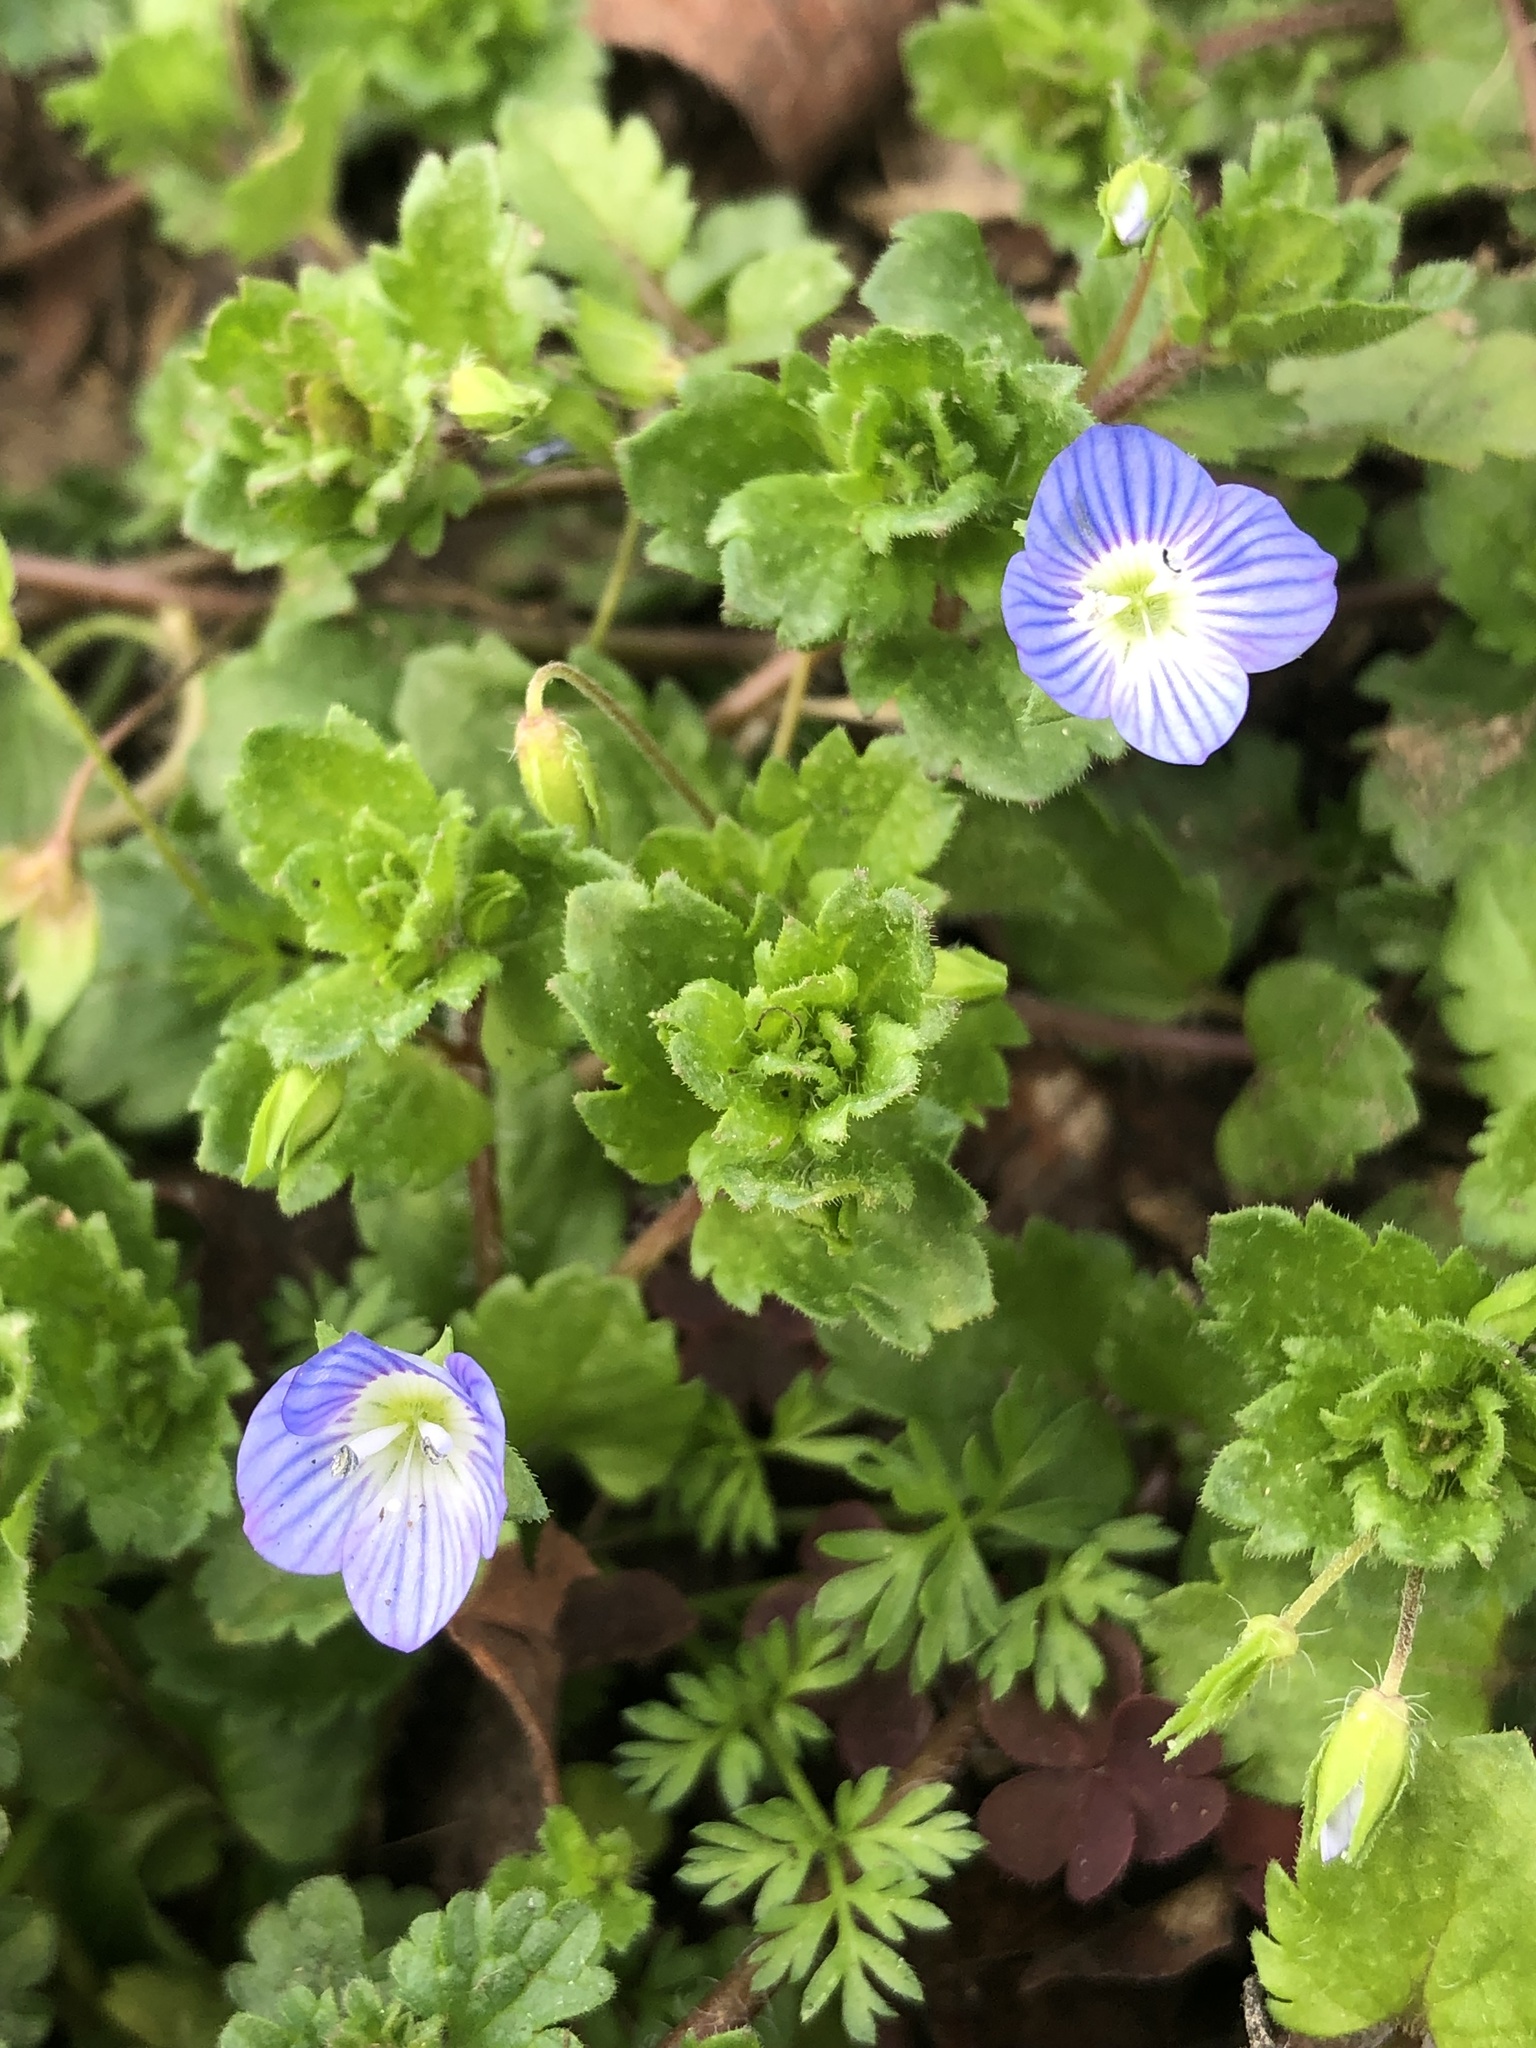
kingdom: Plantae
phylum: Tracheophyta
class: Magnoliopsida
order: Lamiales
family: Plantaginaceae
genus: Veronica
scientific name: Veronica persica
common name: Common field-speedwell
